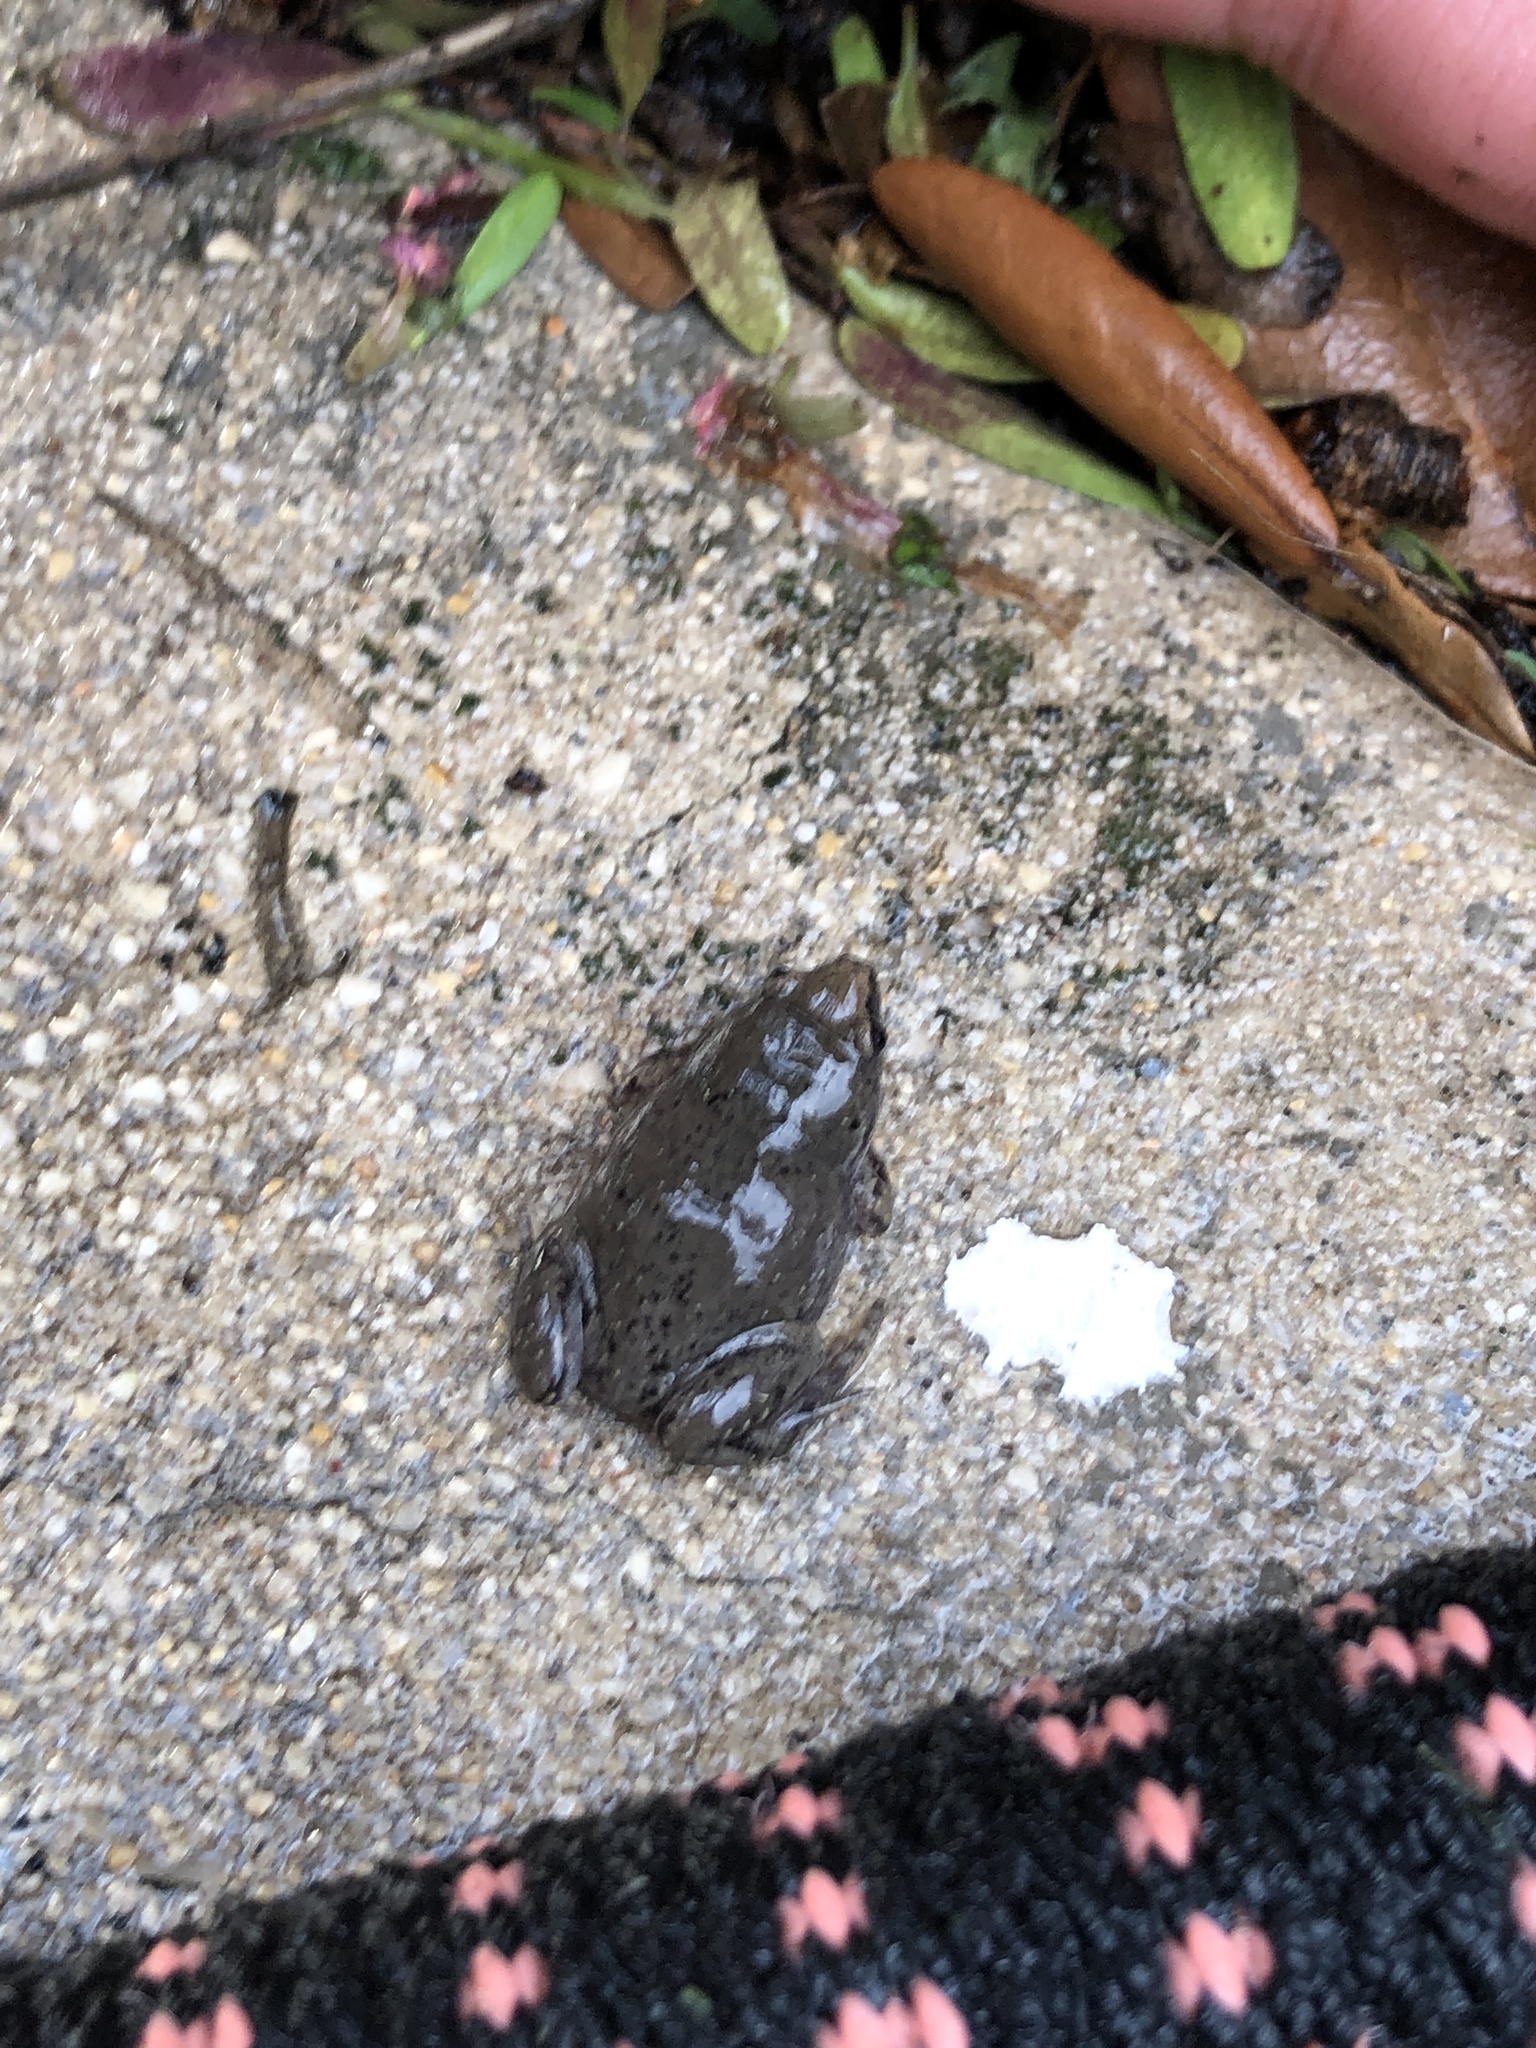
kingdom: Animalia
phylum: Chordata
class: Amphibia
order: Anura
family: Microhylidae
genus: Gastrophryne
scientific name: Gastrophryne olivacea
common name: Great plains narrow-mouthed toad
